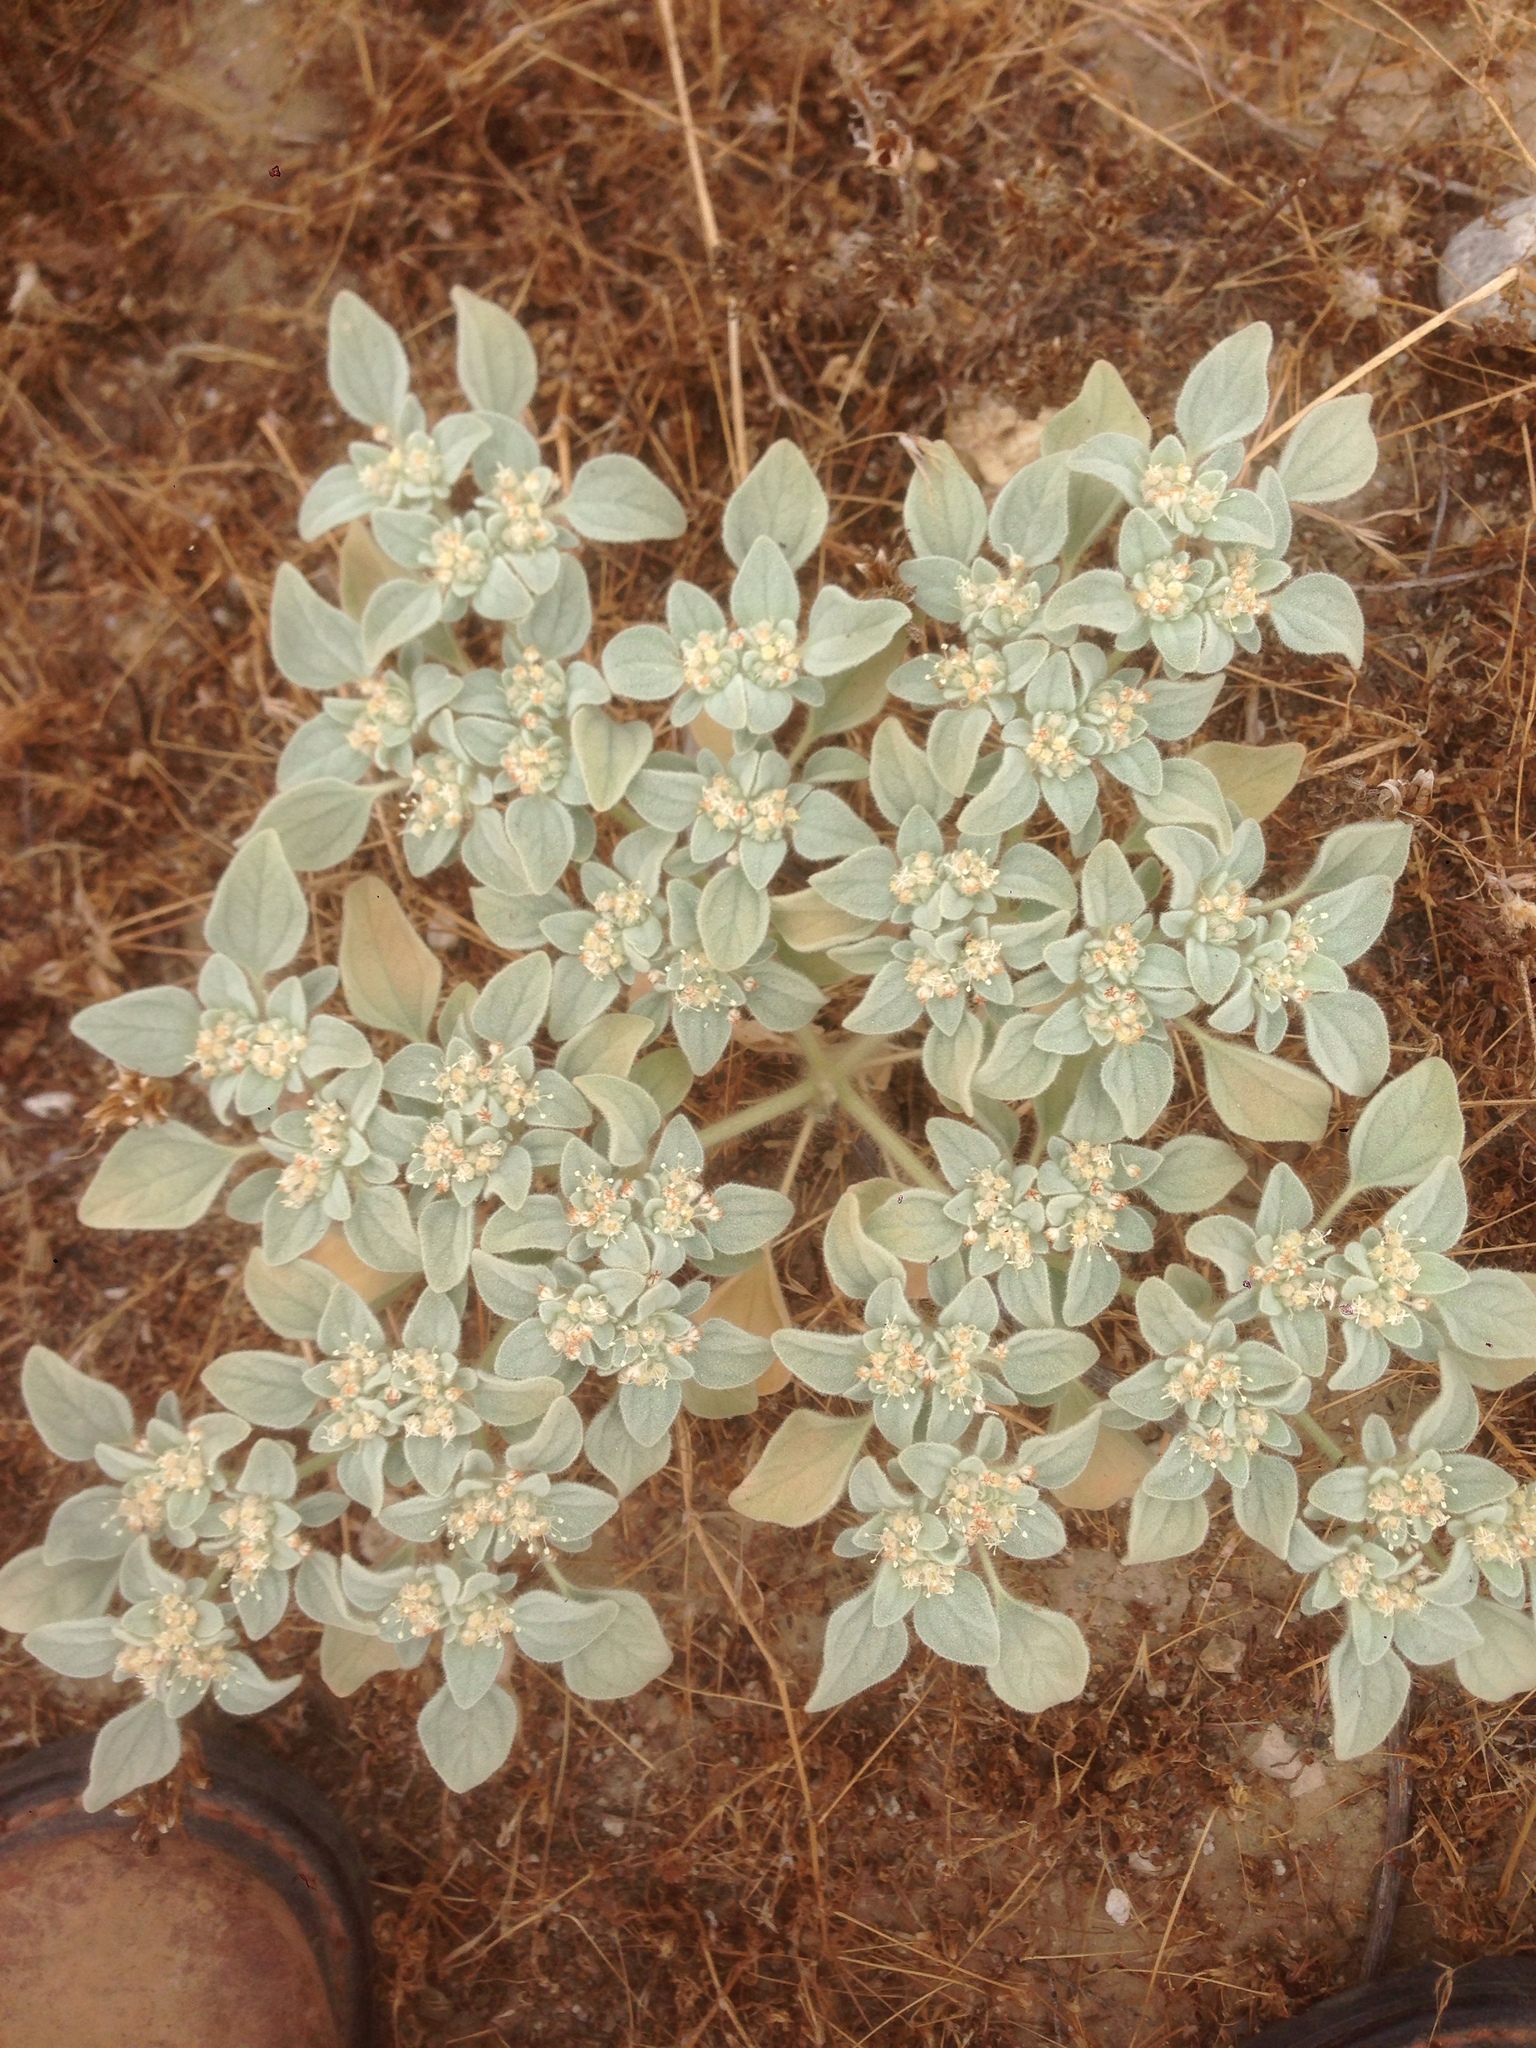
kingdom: Plantae
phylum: Tracheophyta
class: Magnoliopsida
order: Malpighiales
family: Euphorbiaceae
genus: Croton
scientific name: Croton setiger
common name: Dove weed
